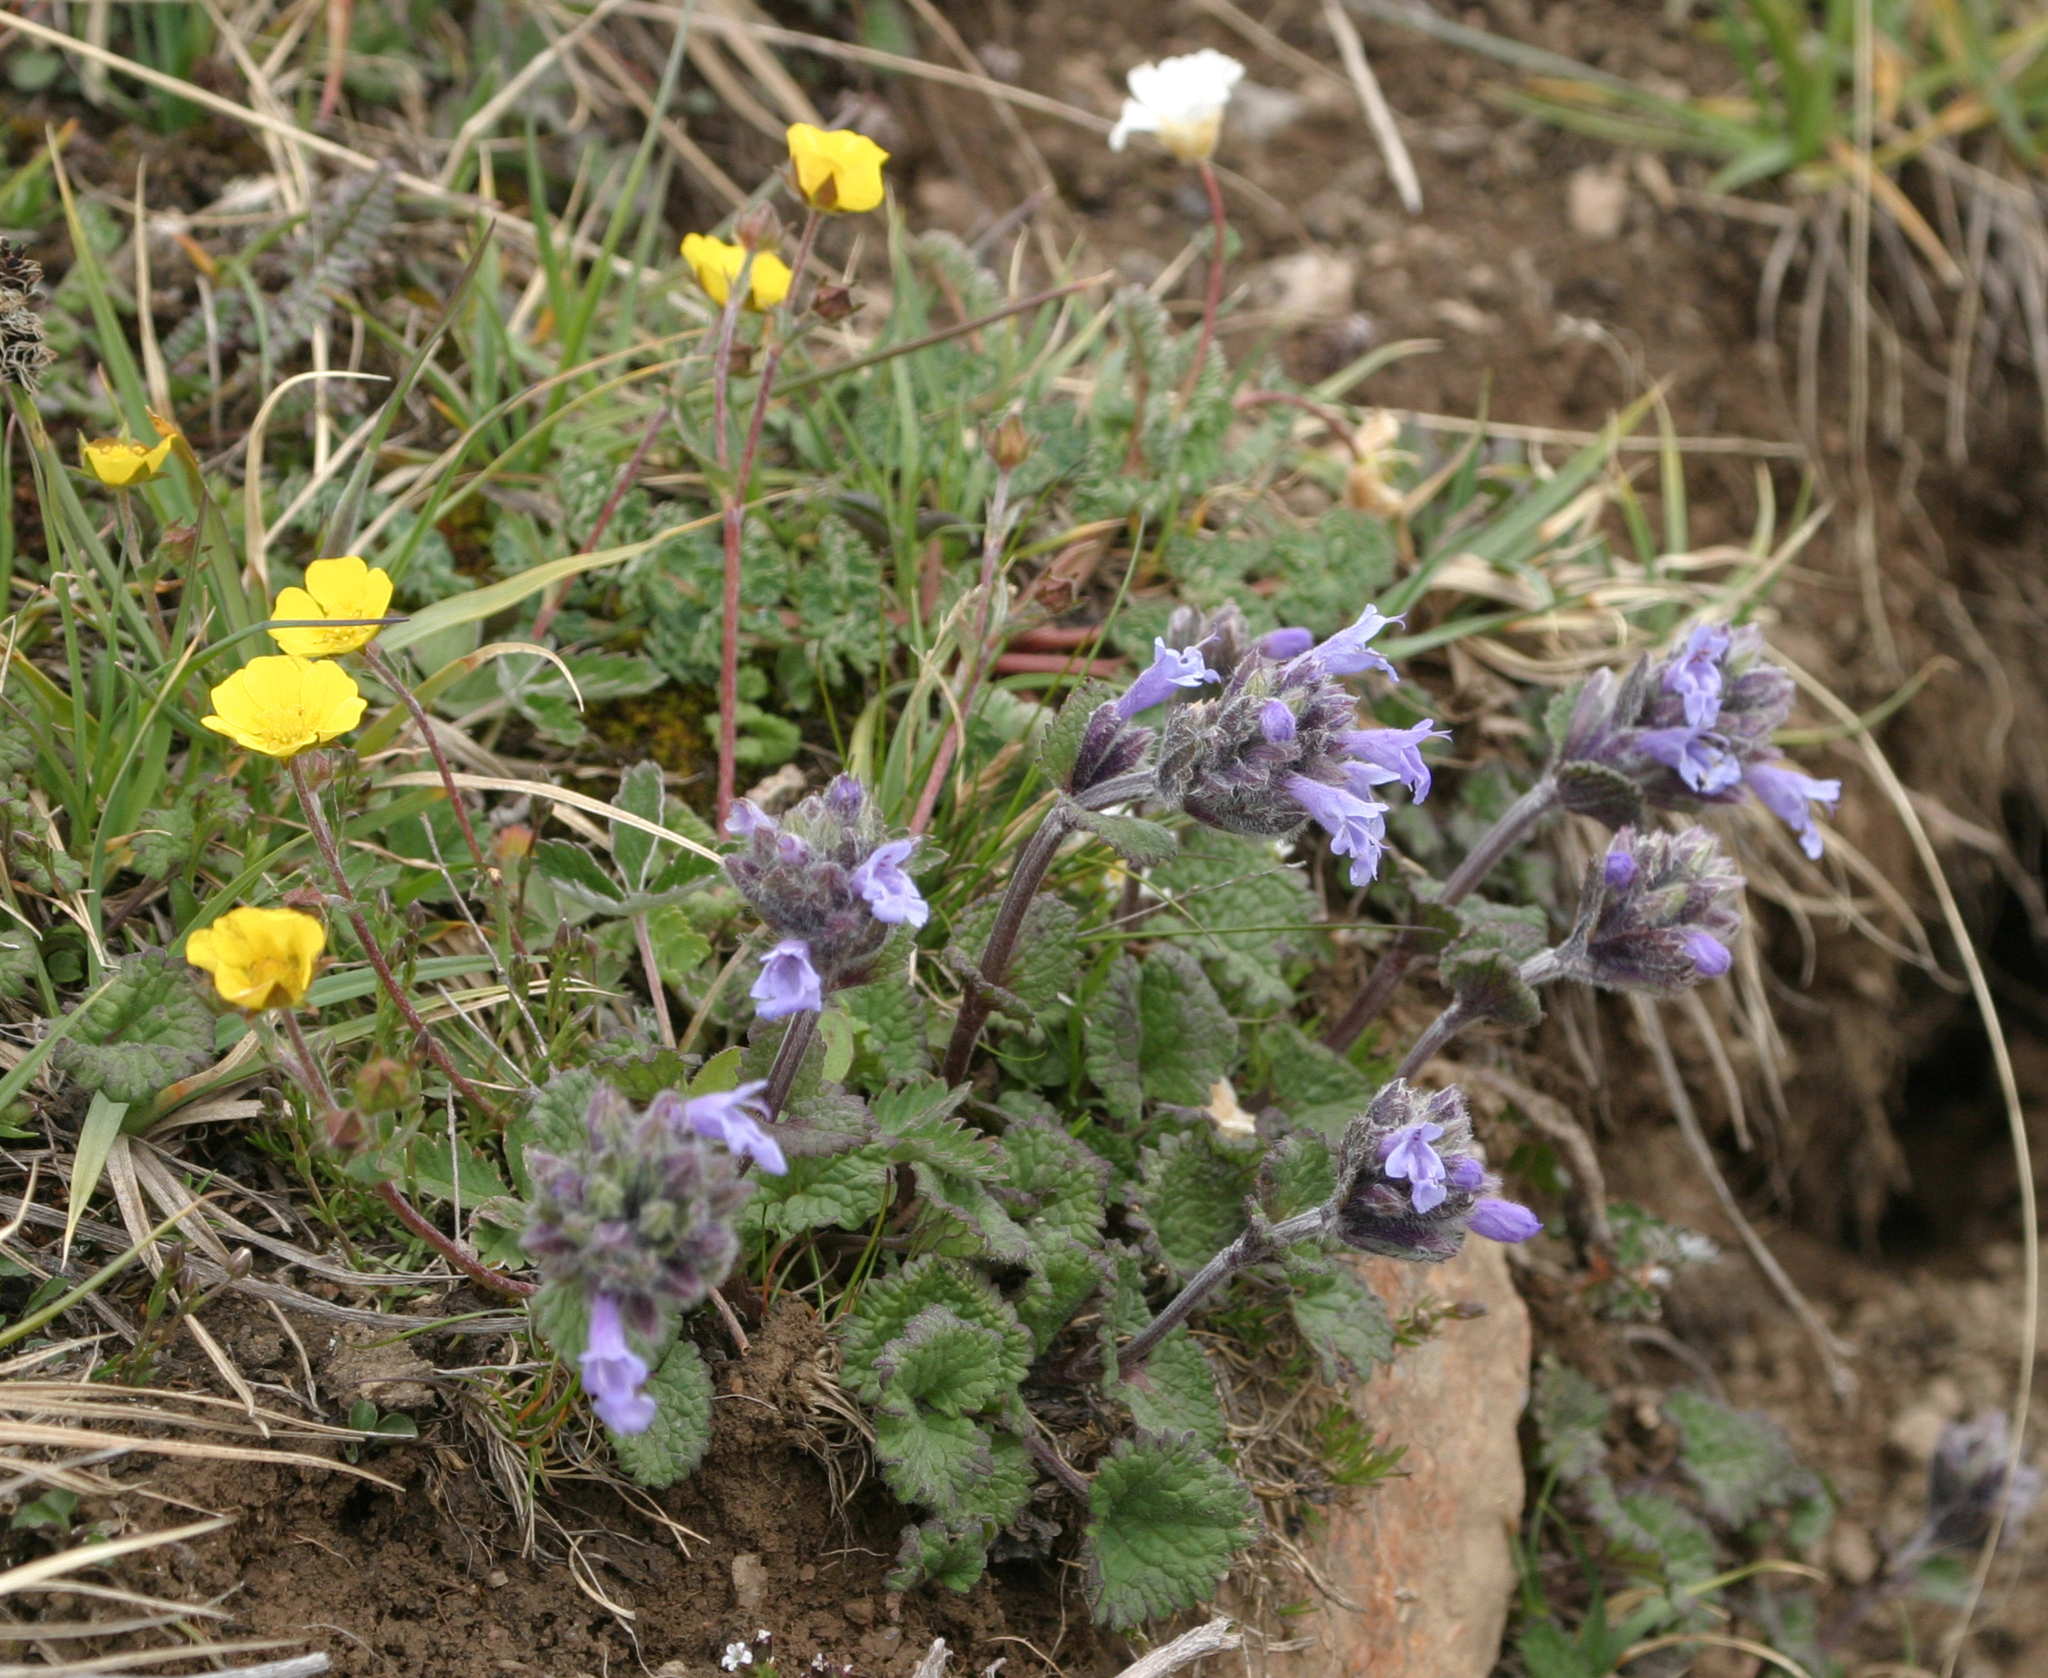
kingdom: Plantae
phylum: Tracheophyta
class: Magnoliopsida
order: Lamiales
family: Lamiaceae
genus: Dracocephalum
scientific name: Dracocephalum imberbe
